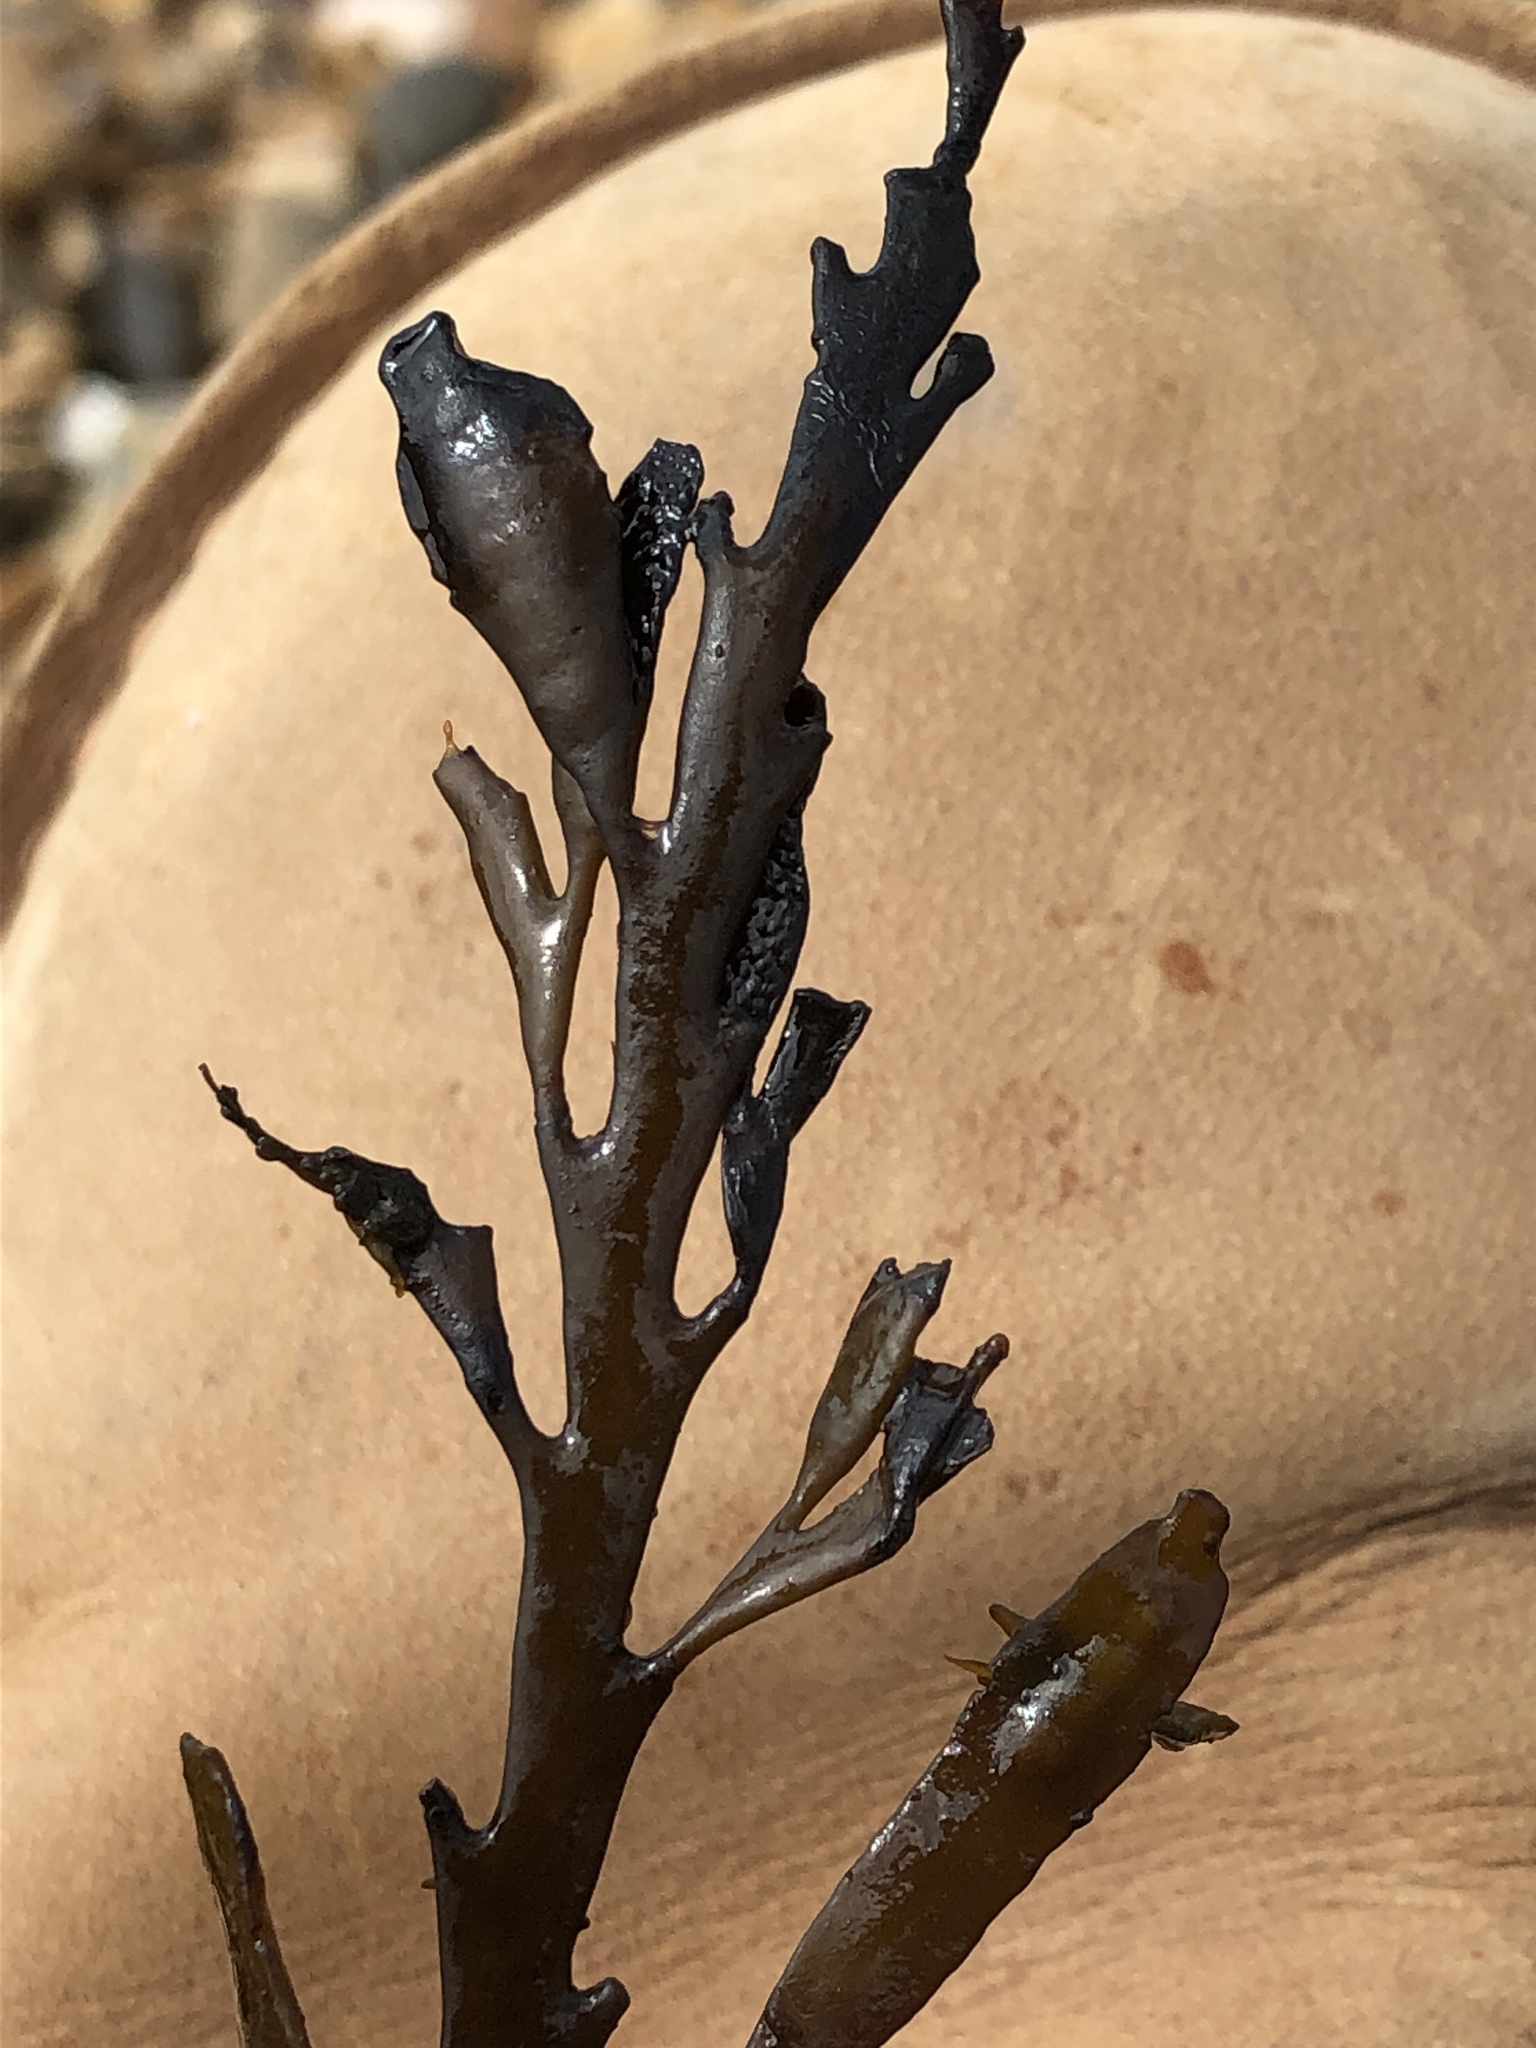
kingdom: Chromista
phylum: Ochrophyta
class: Phaeophyceae
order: Fucales
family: Sargassaceae
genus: Halidrys
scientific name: Halidrys siliquosa
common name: Sea oak
